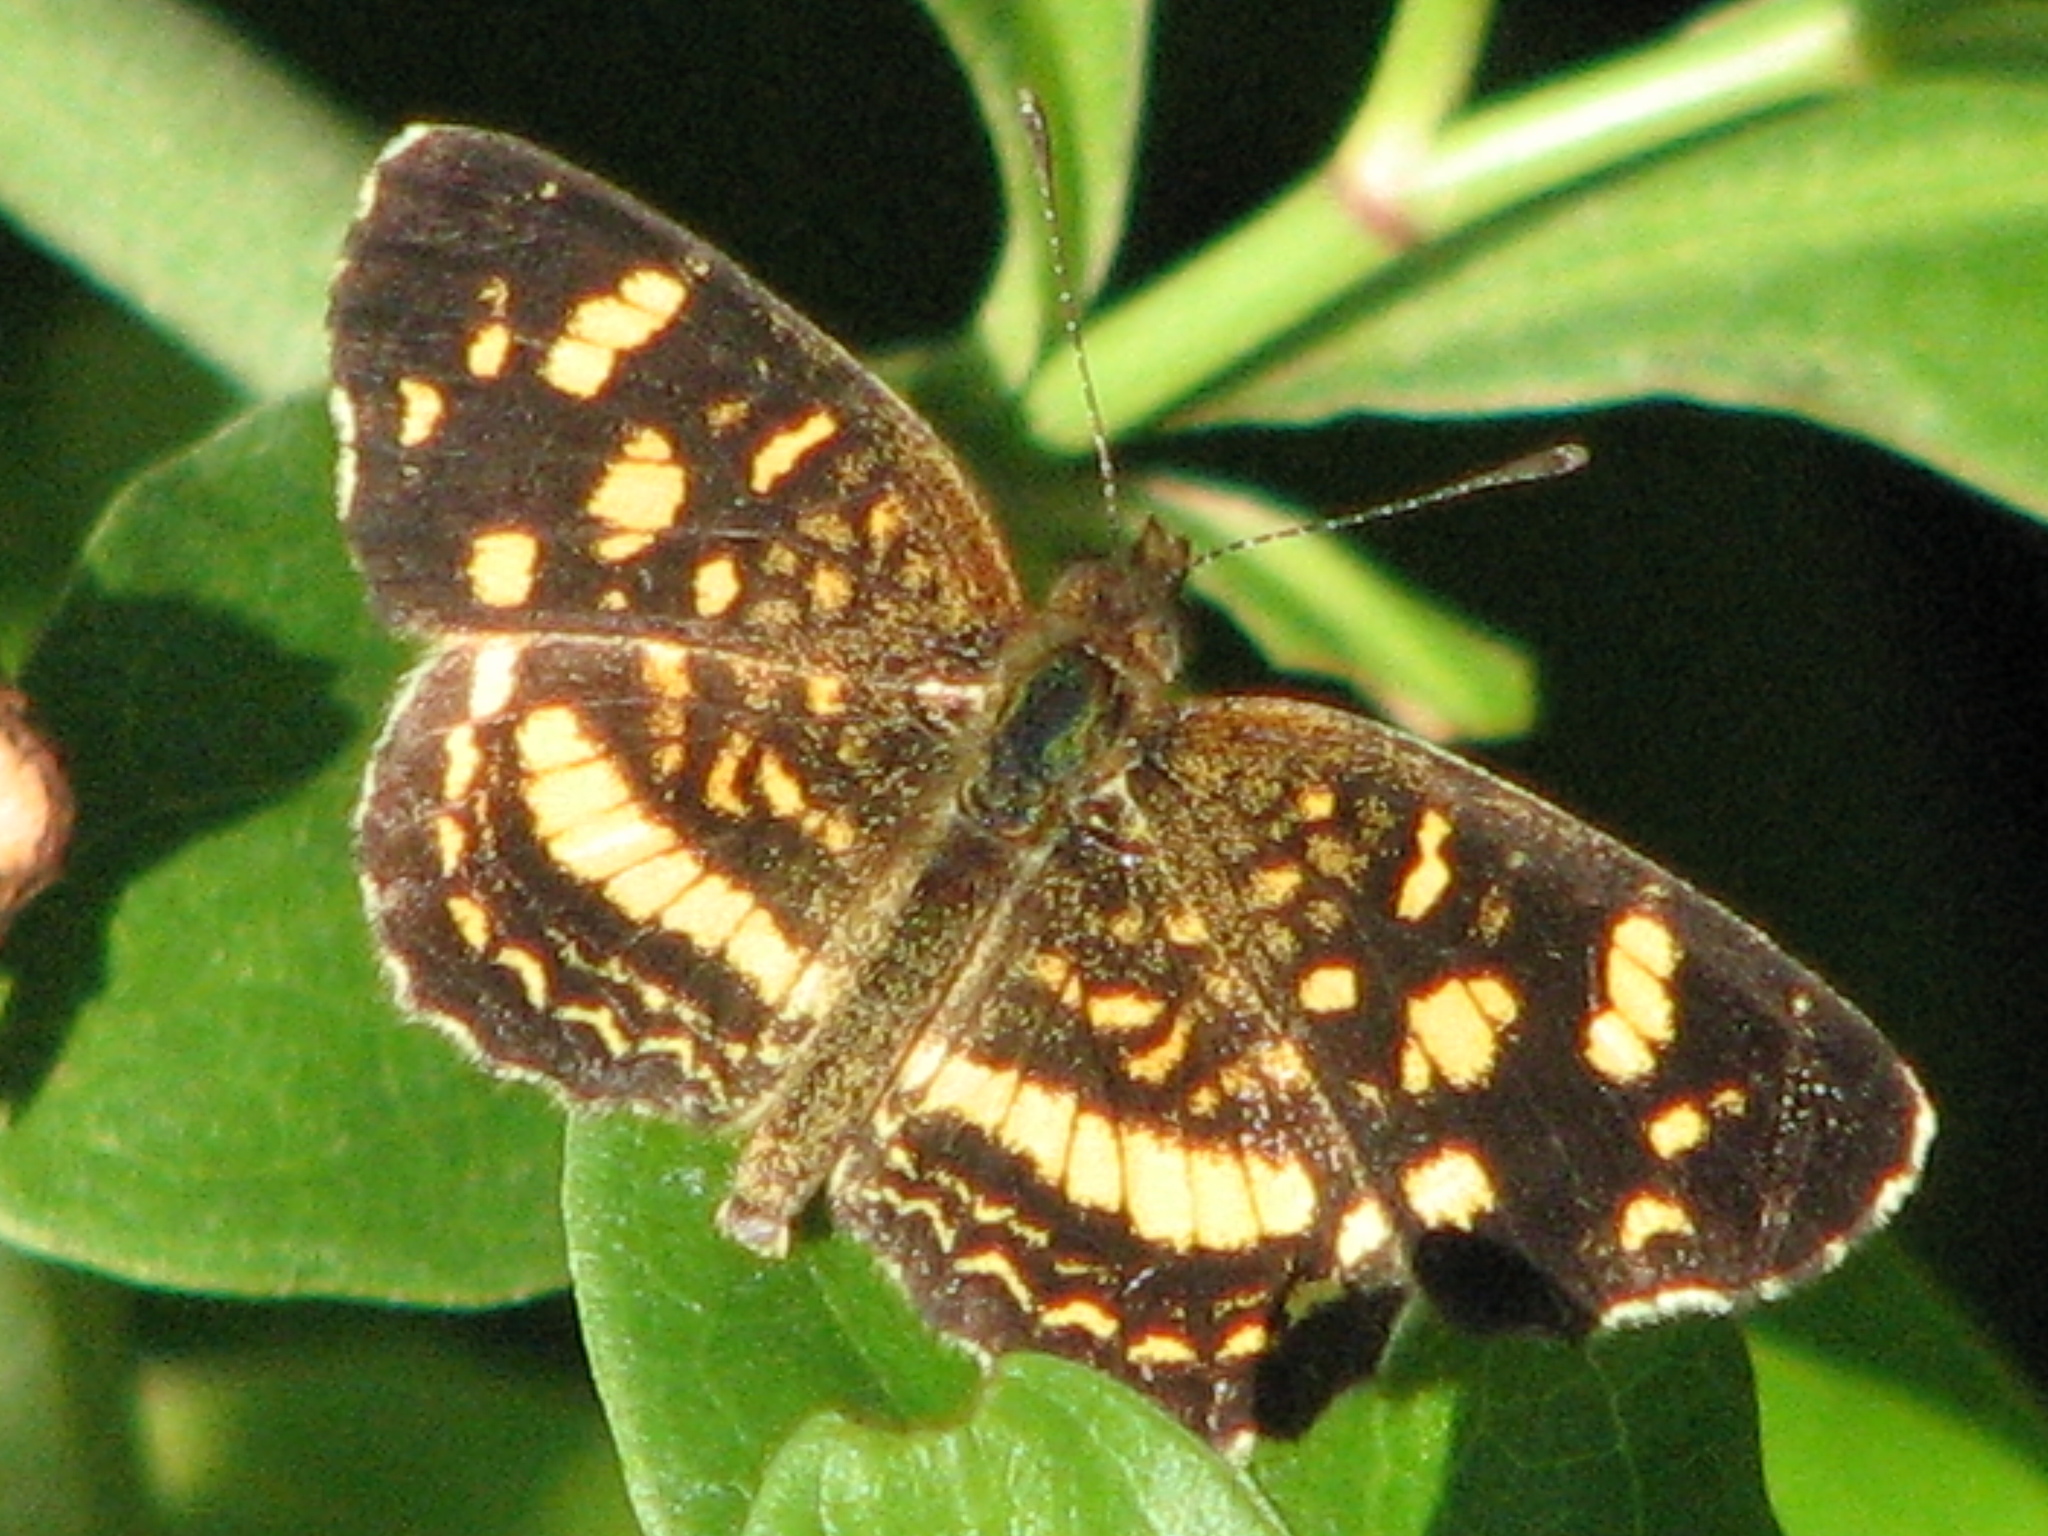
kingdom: Animalia
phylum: Arthropoda
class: Insecta
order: Lepidoptera
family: Nymphalidae
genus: Anthanassa
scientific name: Anthanassa tulcis
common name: Pale-banded crescent
